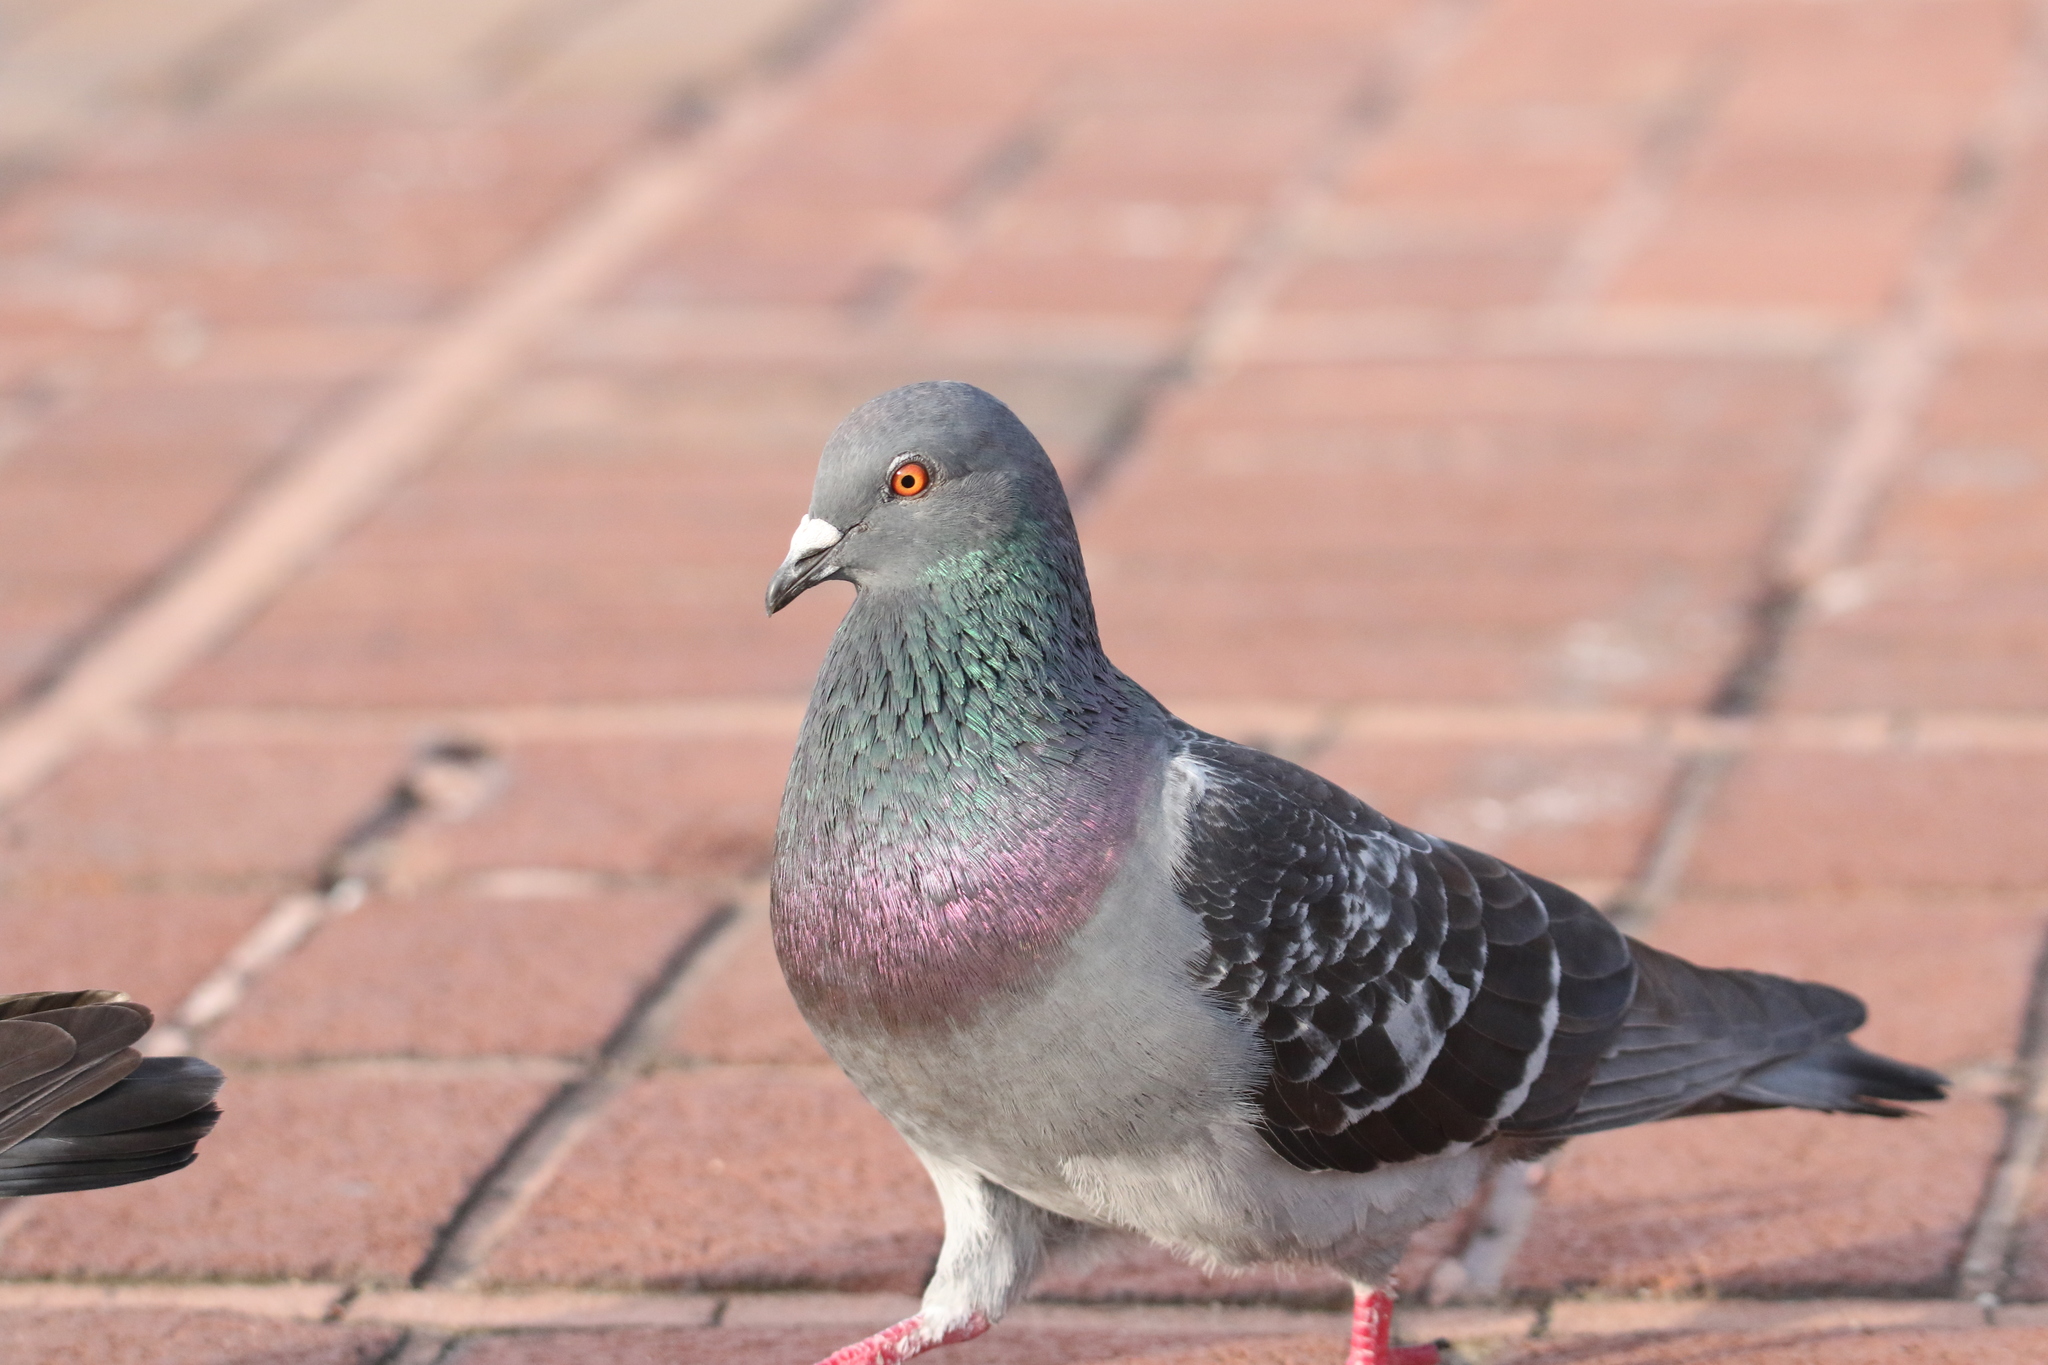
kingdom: Animalia
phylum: Chordata
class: Aves
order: Columbiformes
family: Columbidae
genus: Columba
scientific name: Columba livia
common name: Rock pigeon
